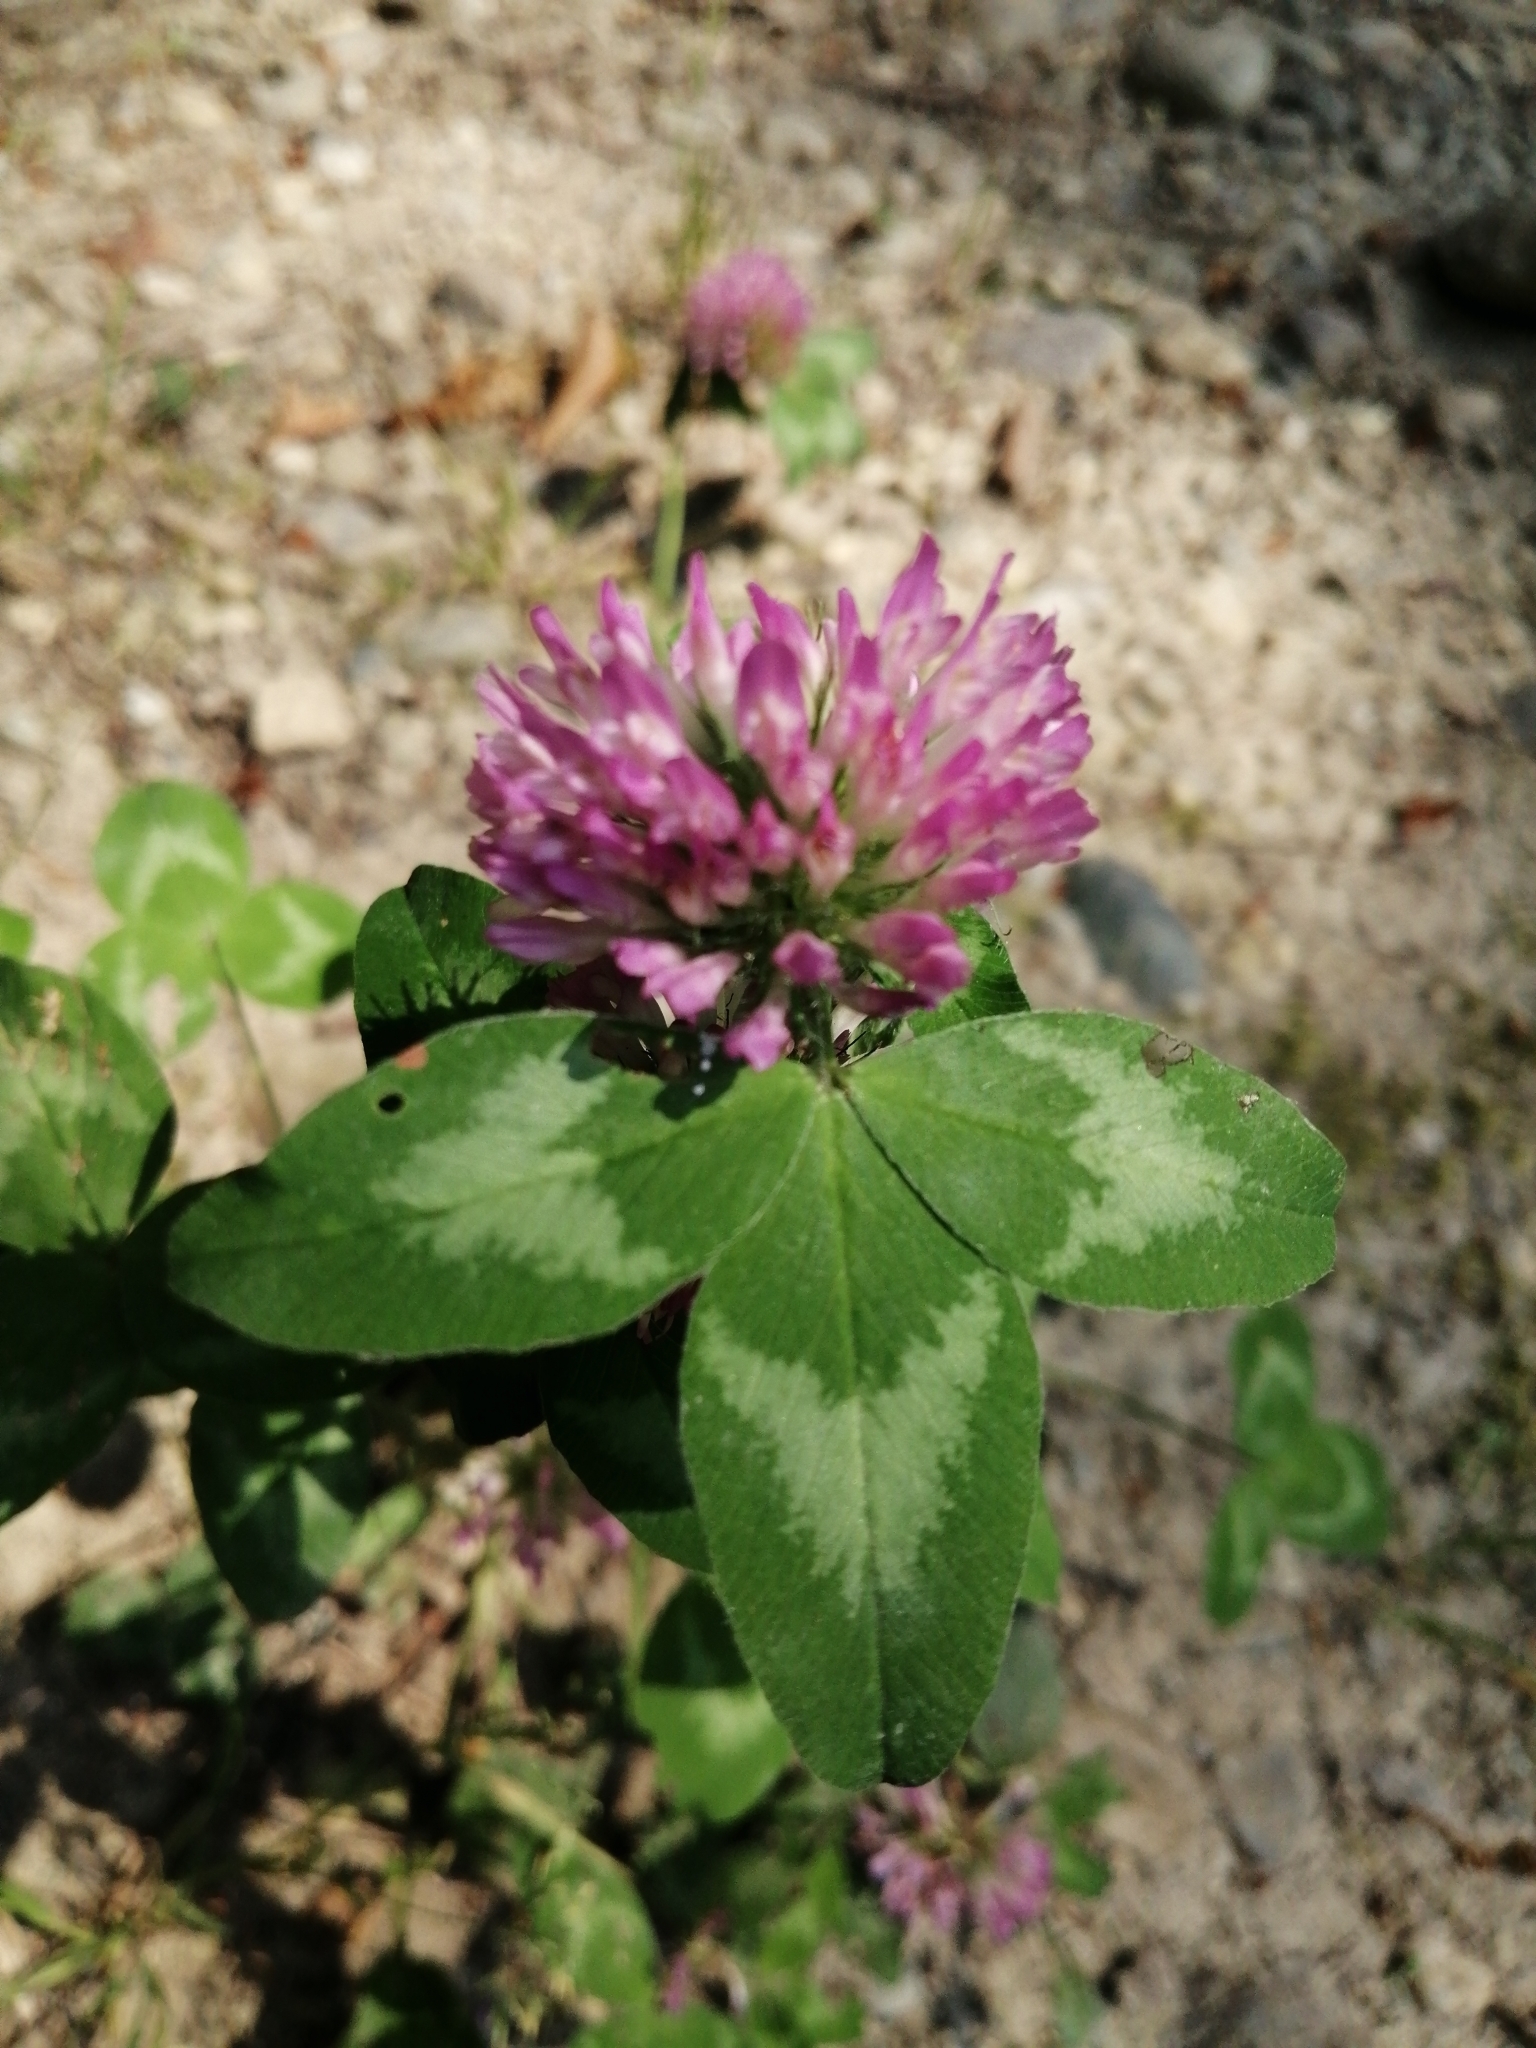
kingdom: Plantae
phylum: Tracheophyta
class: Magnoliopsida
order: Fabales
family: Fabaceae
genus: Trifolium
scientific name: Trifolium pratense
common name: Red clover
